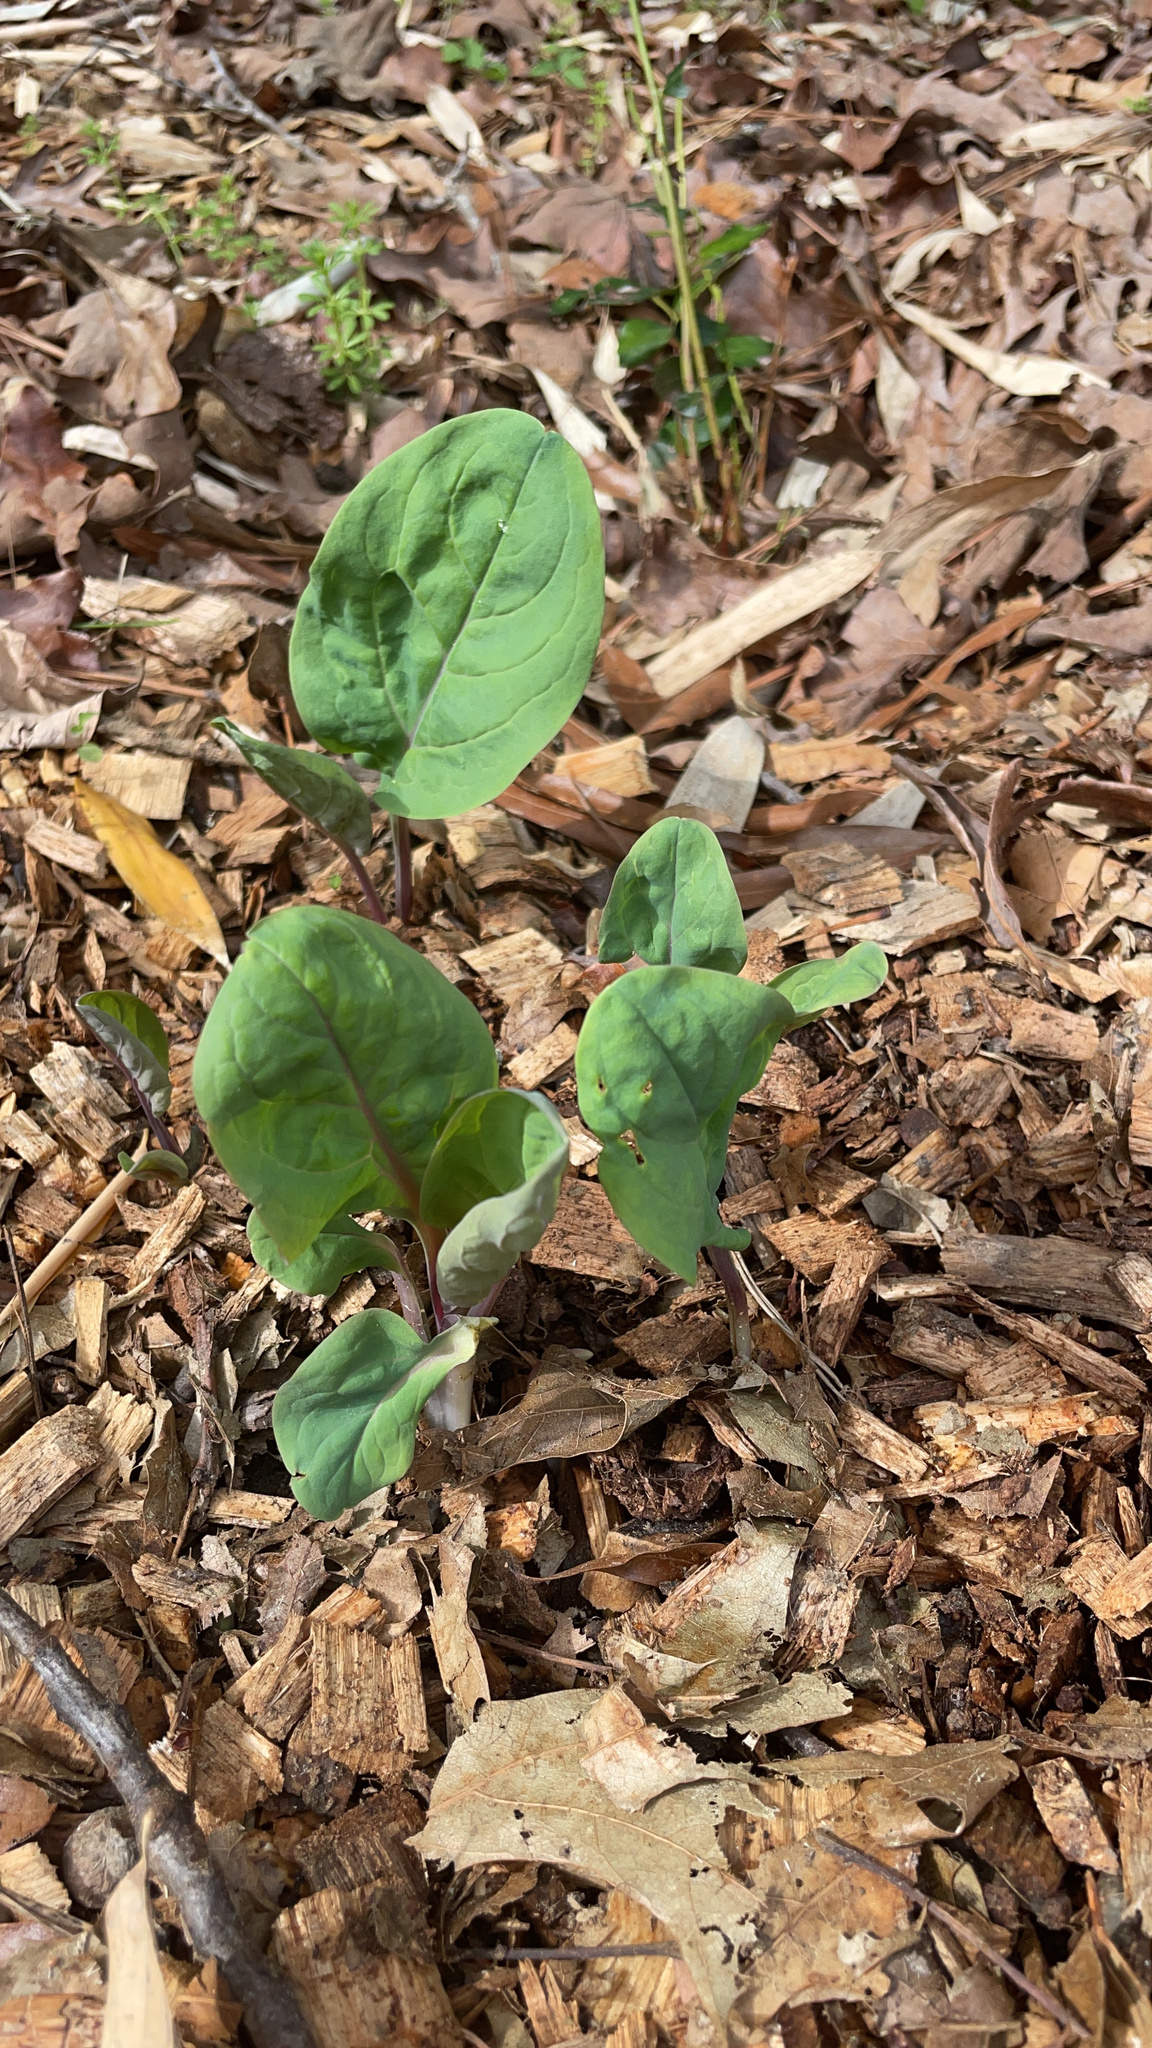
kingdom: Plantae
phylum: Tracheophyta
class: Magnoliopsida
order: Boraginales
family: Boraginaceae
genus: Mertensia
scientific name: Mertensia virginica
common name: Virginia bluebells
